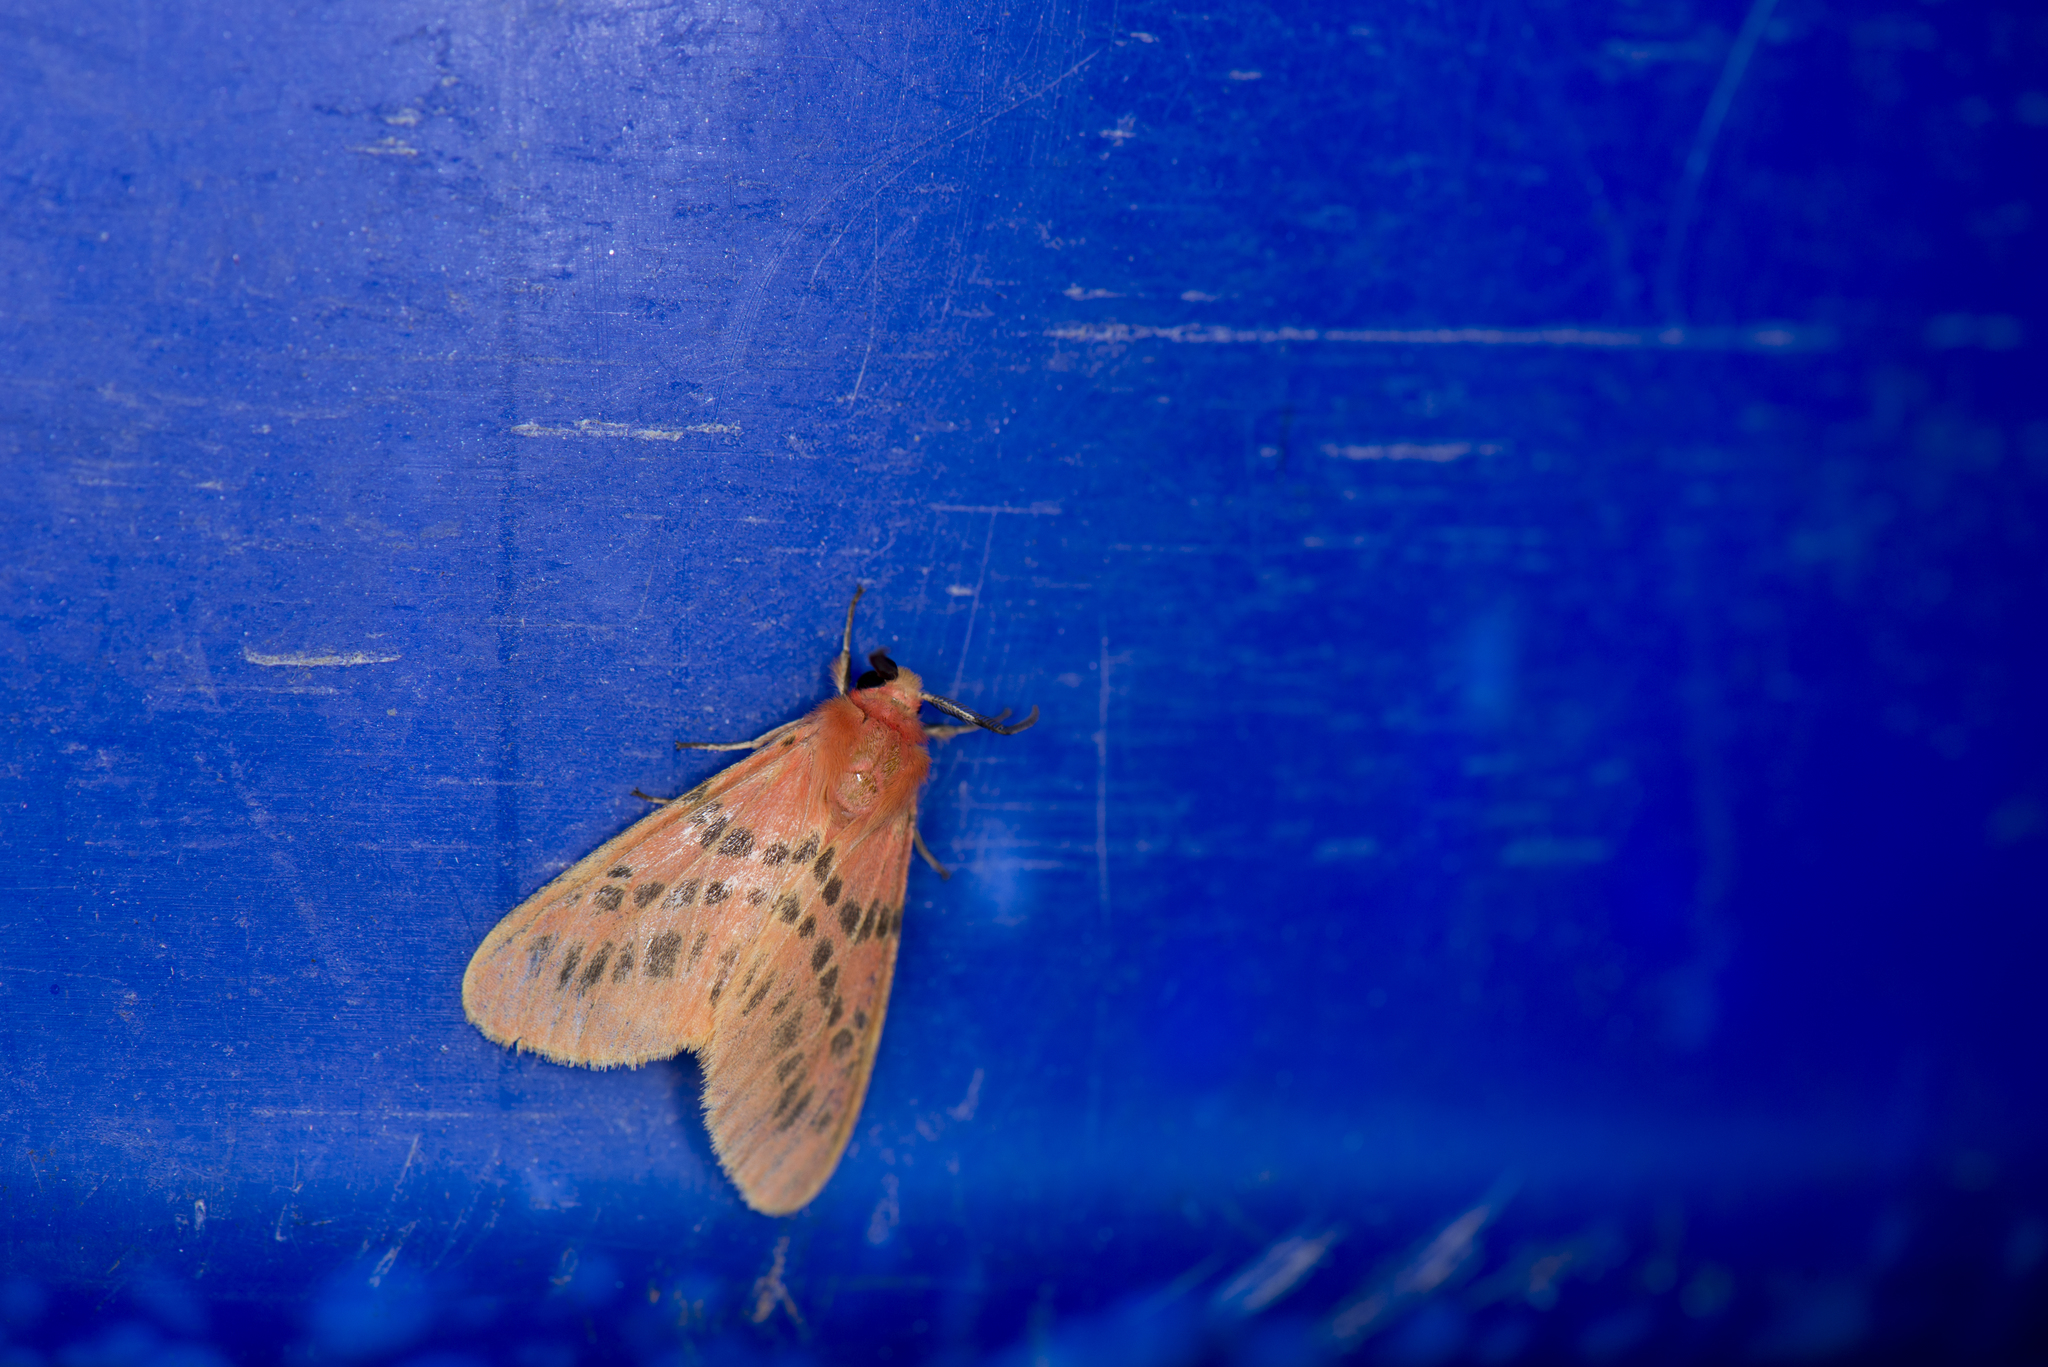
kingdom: Animalia
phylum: Arthropoda
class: Insecta
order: Lepidoptera
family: Erebidae
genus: Lemyra
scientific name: Lemyra alikangensis
